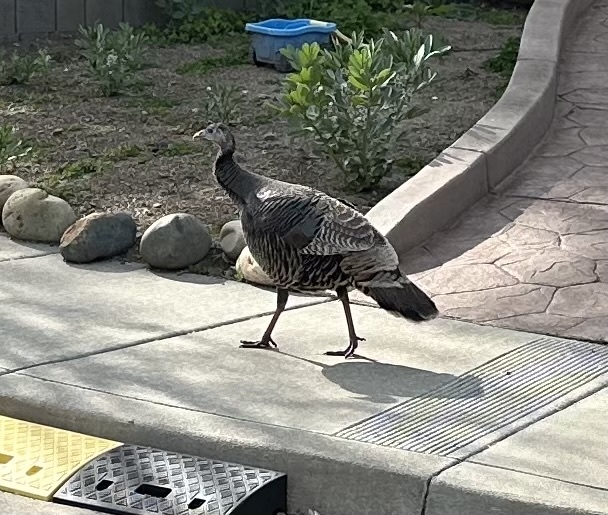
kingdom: Animalia
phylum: Chordata
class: Aves
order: Galliformes
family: Phasianidae
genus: Meleagris
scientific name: Meleagris gallopavo
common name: Wild turkey
